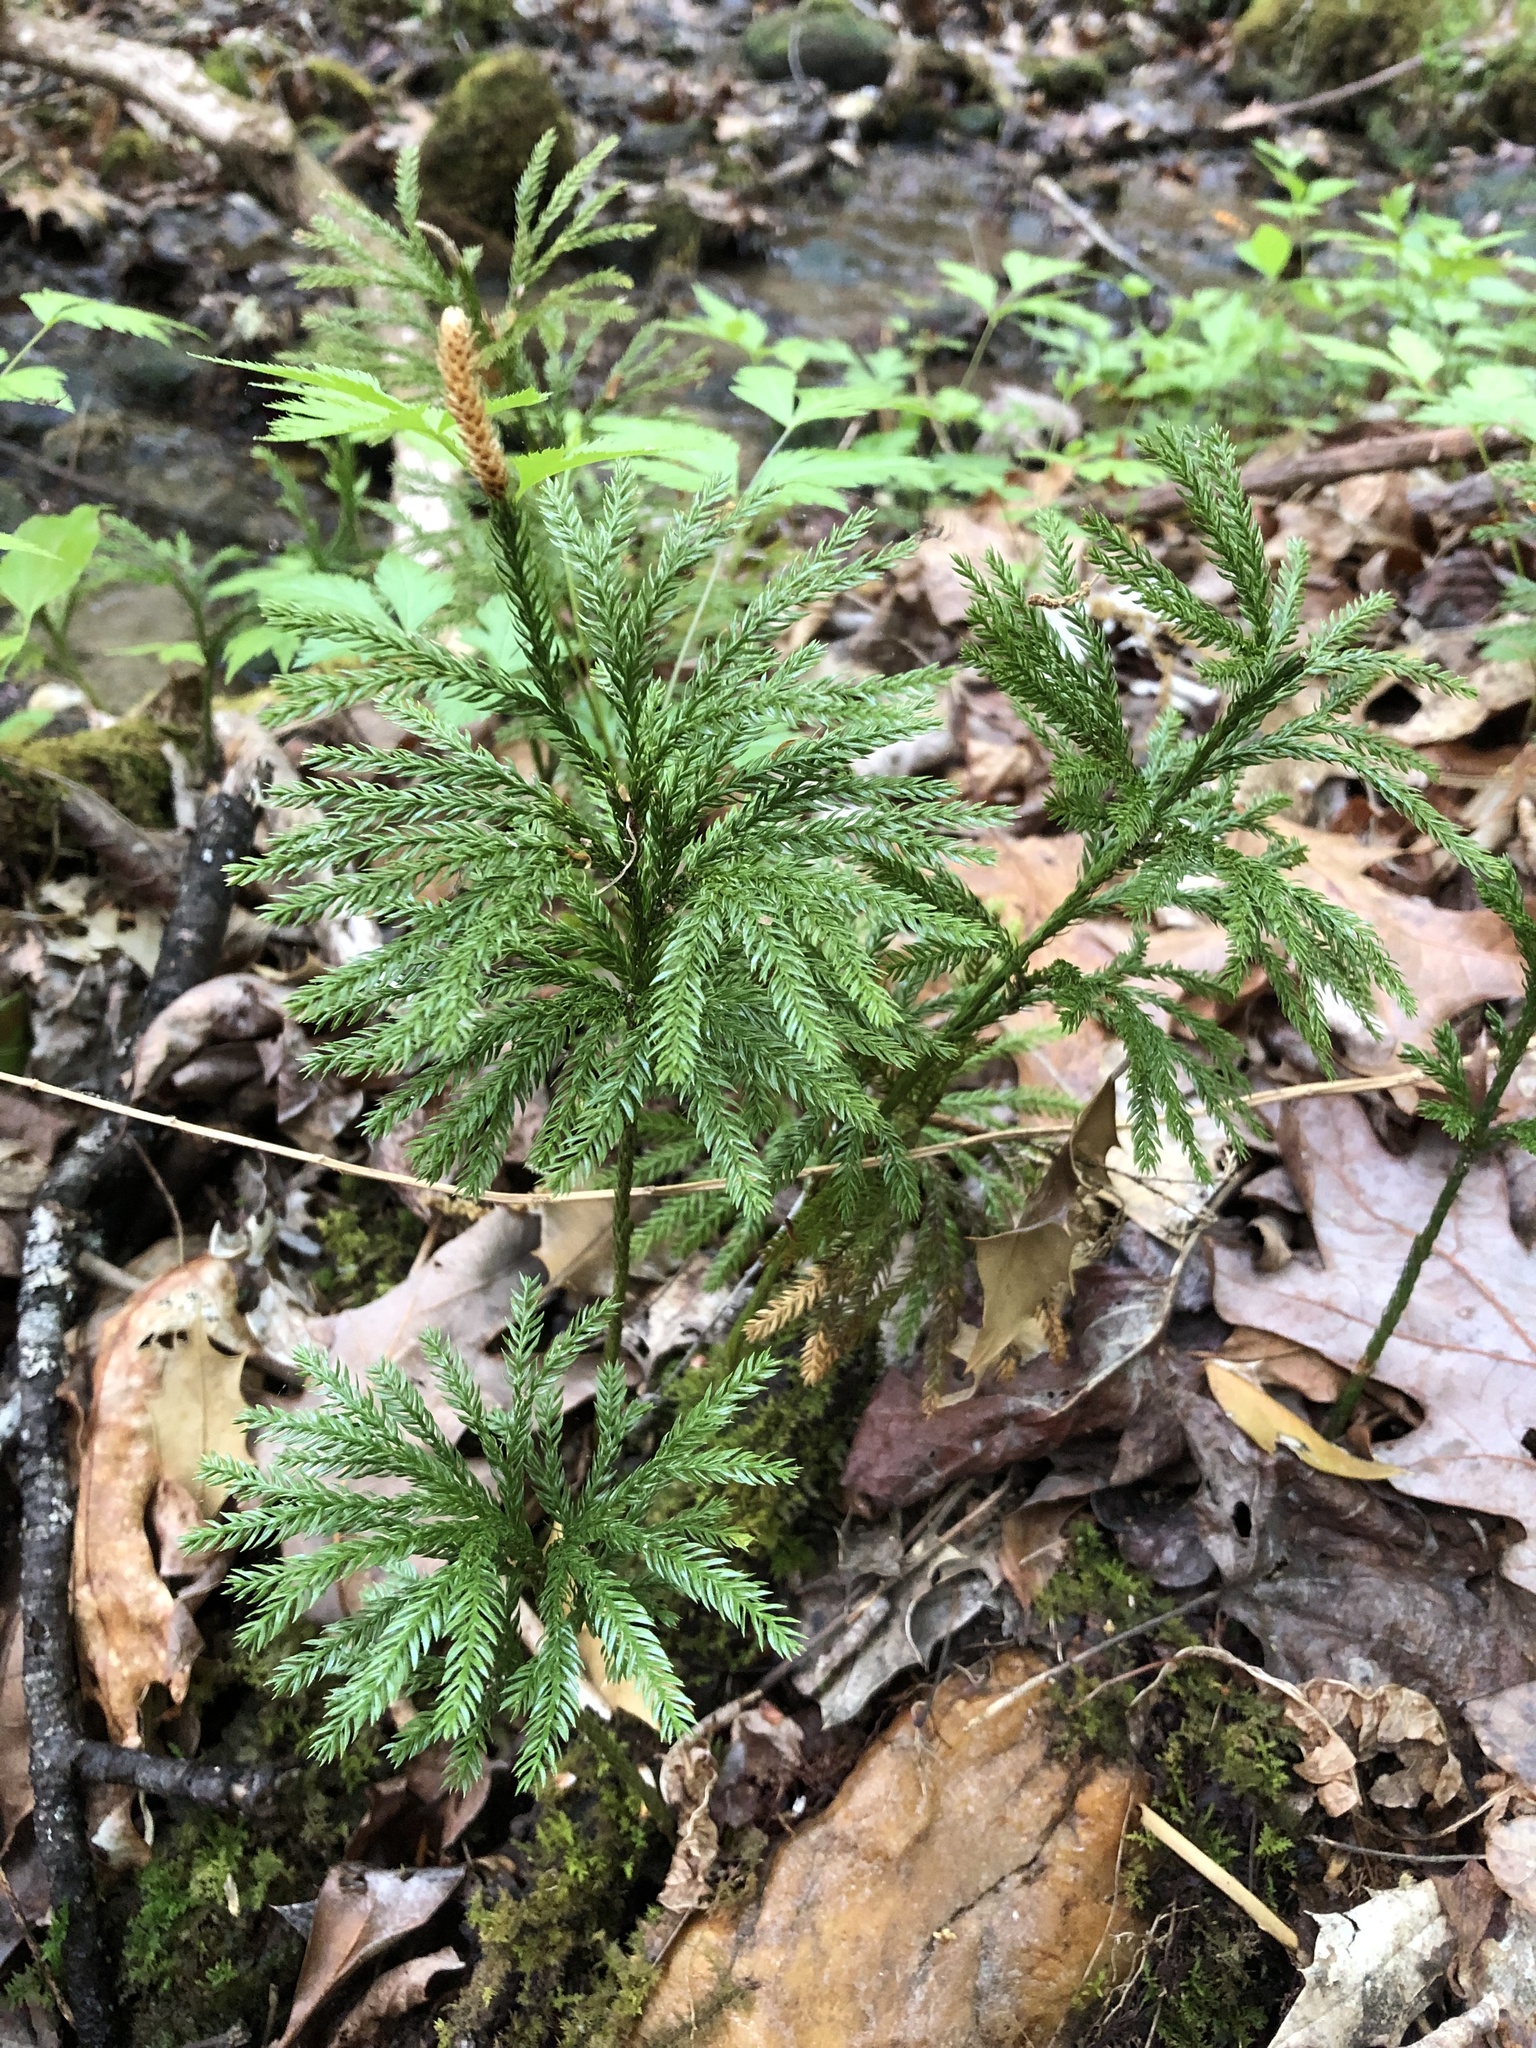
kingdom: Plantae
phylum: Tracheophyta
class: Lycopodiopsida
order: Lycopodiales
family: Lycopodiaceae
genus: Dendrolycopodium
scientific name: Dendrolycopodium obscurum
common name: Common ground-pine
